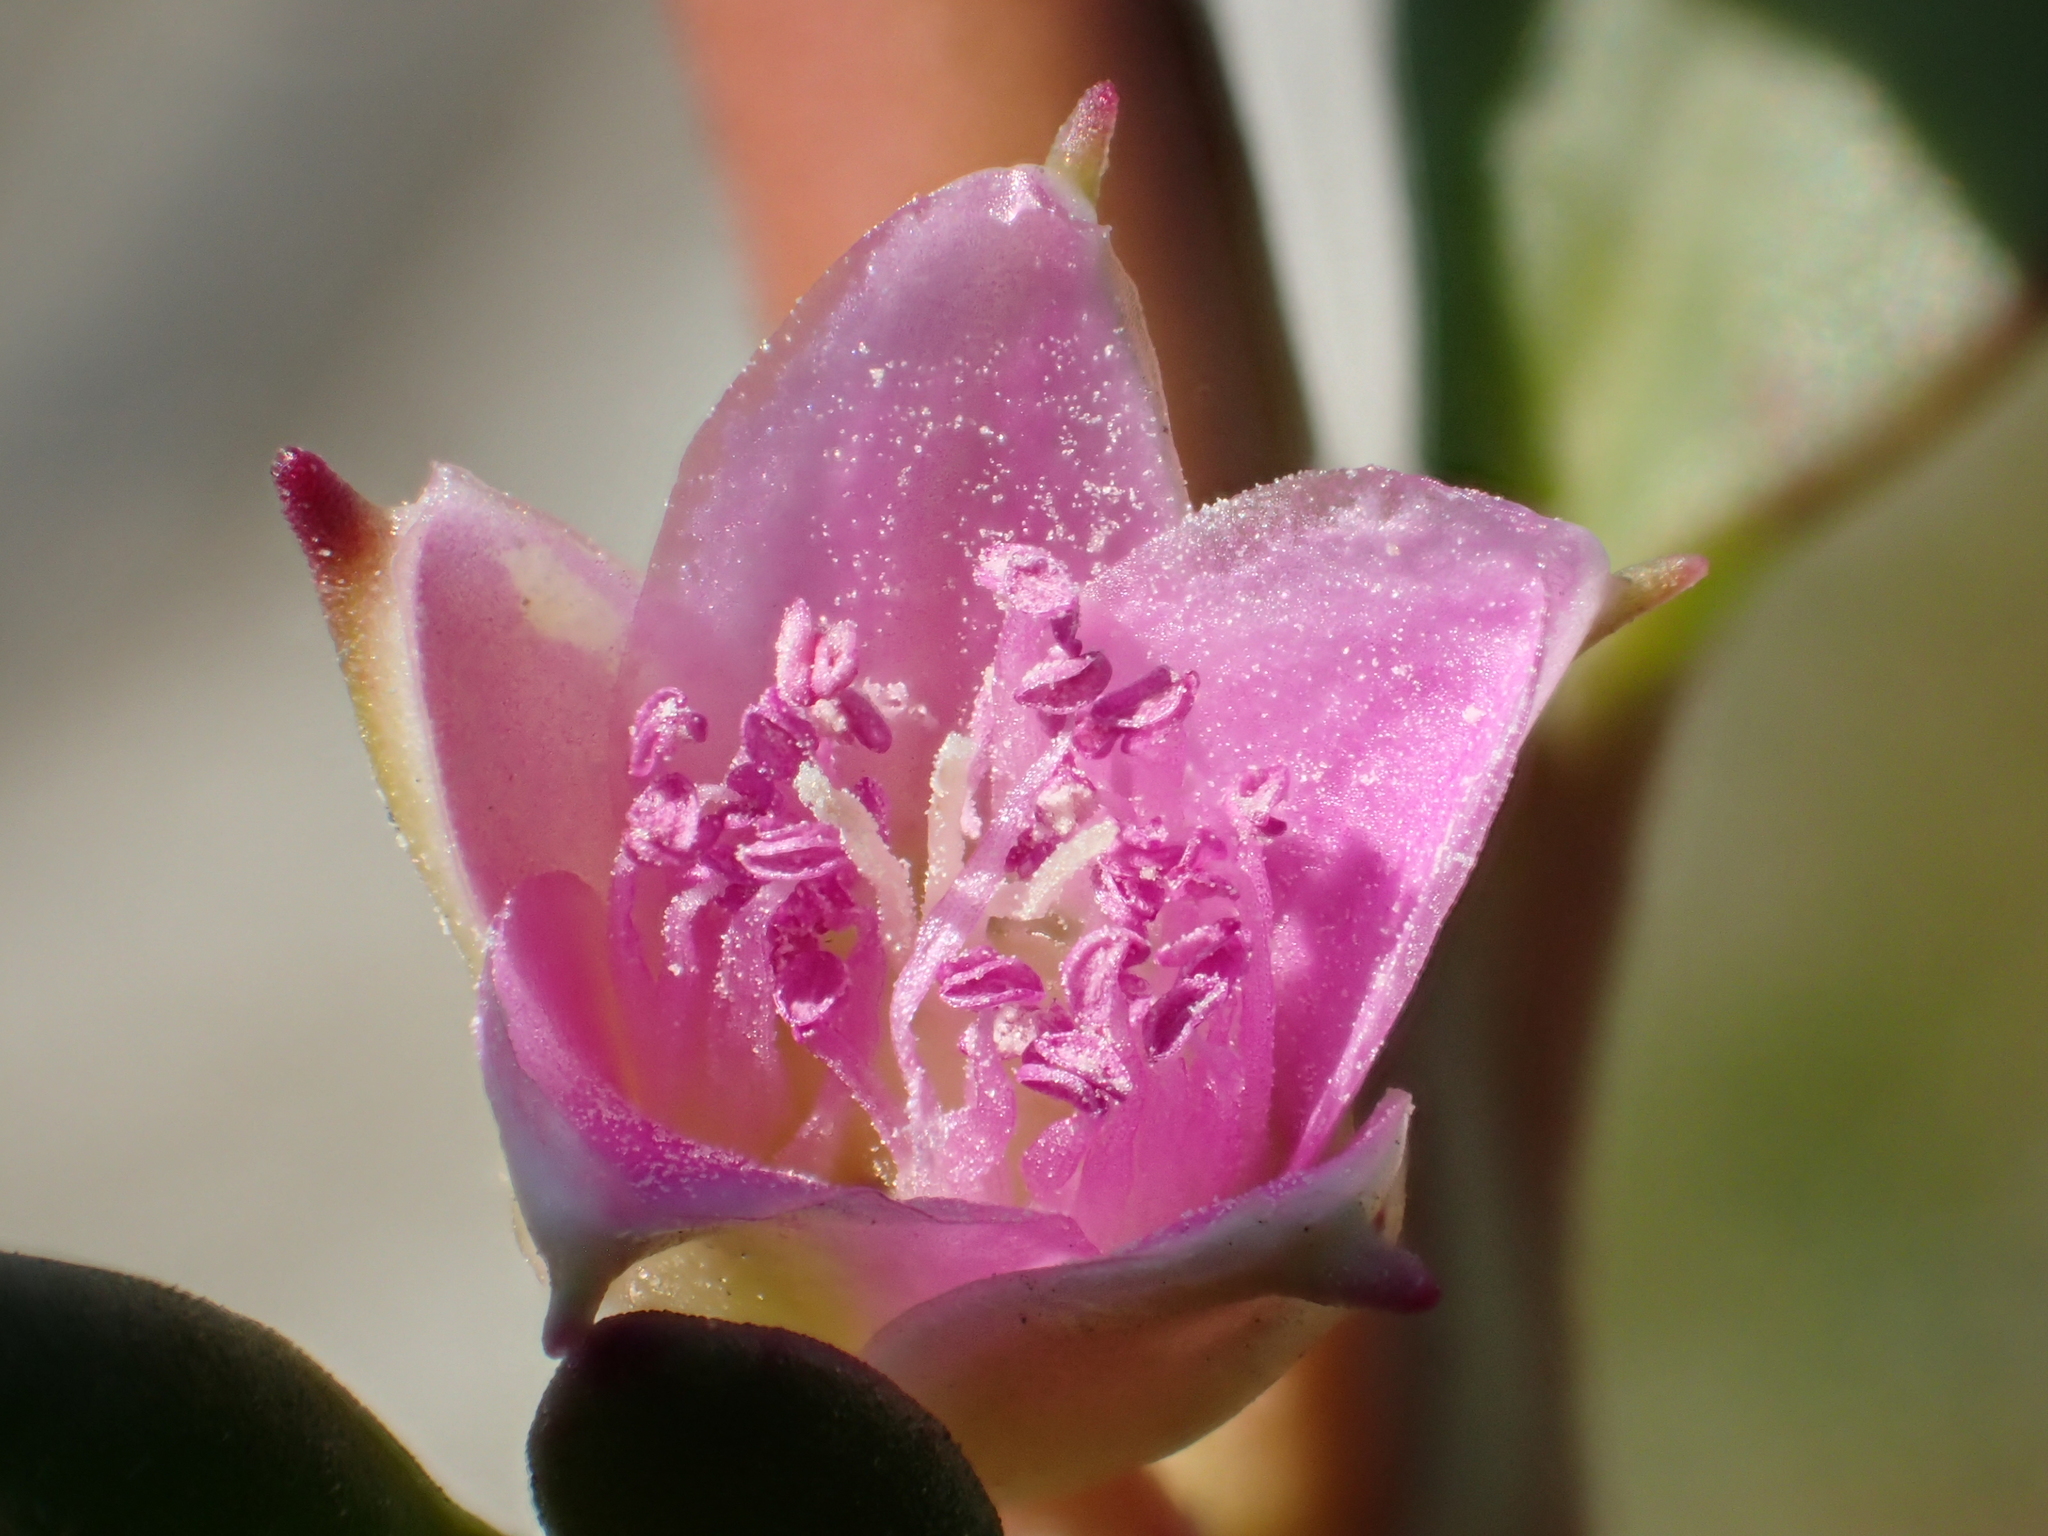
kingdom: Plantae
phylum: Tracheophyta
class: Magnoliopsida
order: Caryophyllales
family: Aizoaceae
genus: Sesuvium
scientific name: Sesuvium portulacastrum
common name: Sea-purslane
